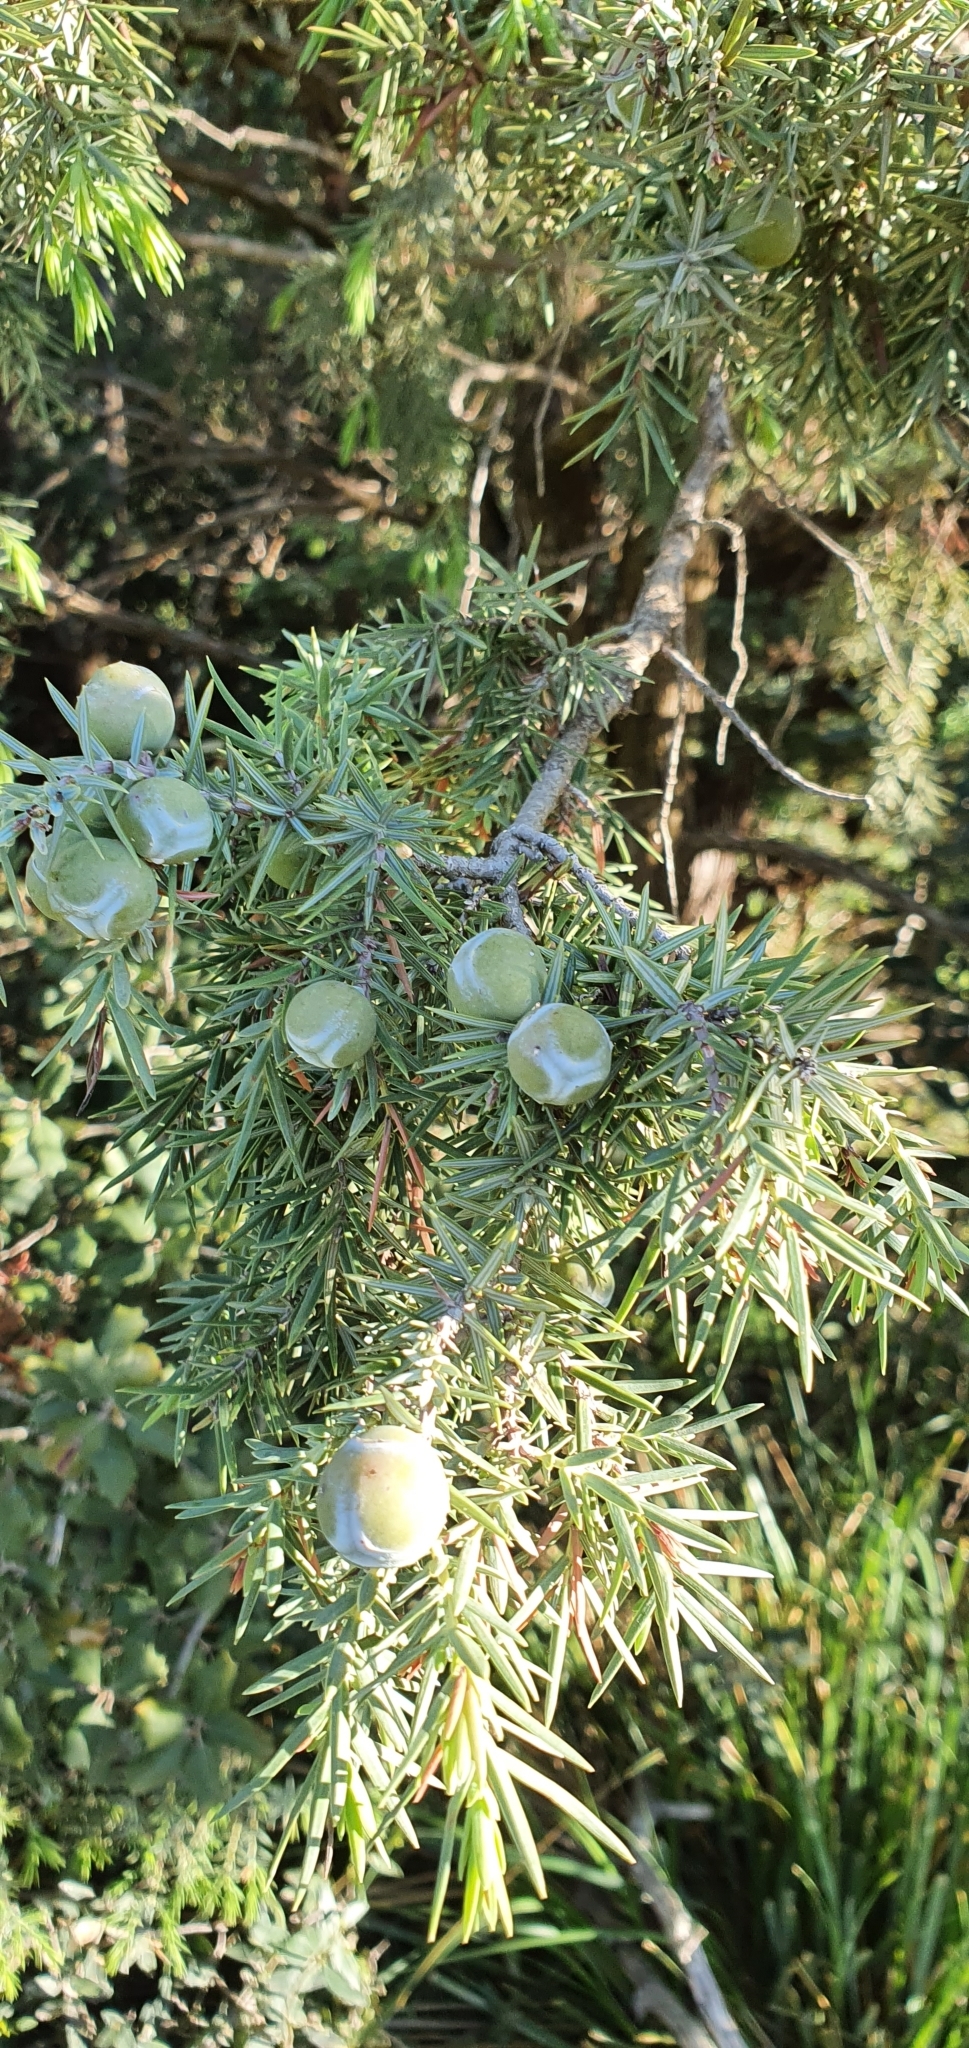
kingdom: Plantae
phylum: Tracheophyta
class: Pinopsida
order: Pinales
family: Cupressaceae
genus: Juniperus
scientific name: Juniperus oxycedrus
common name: Prickly juniper
